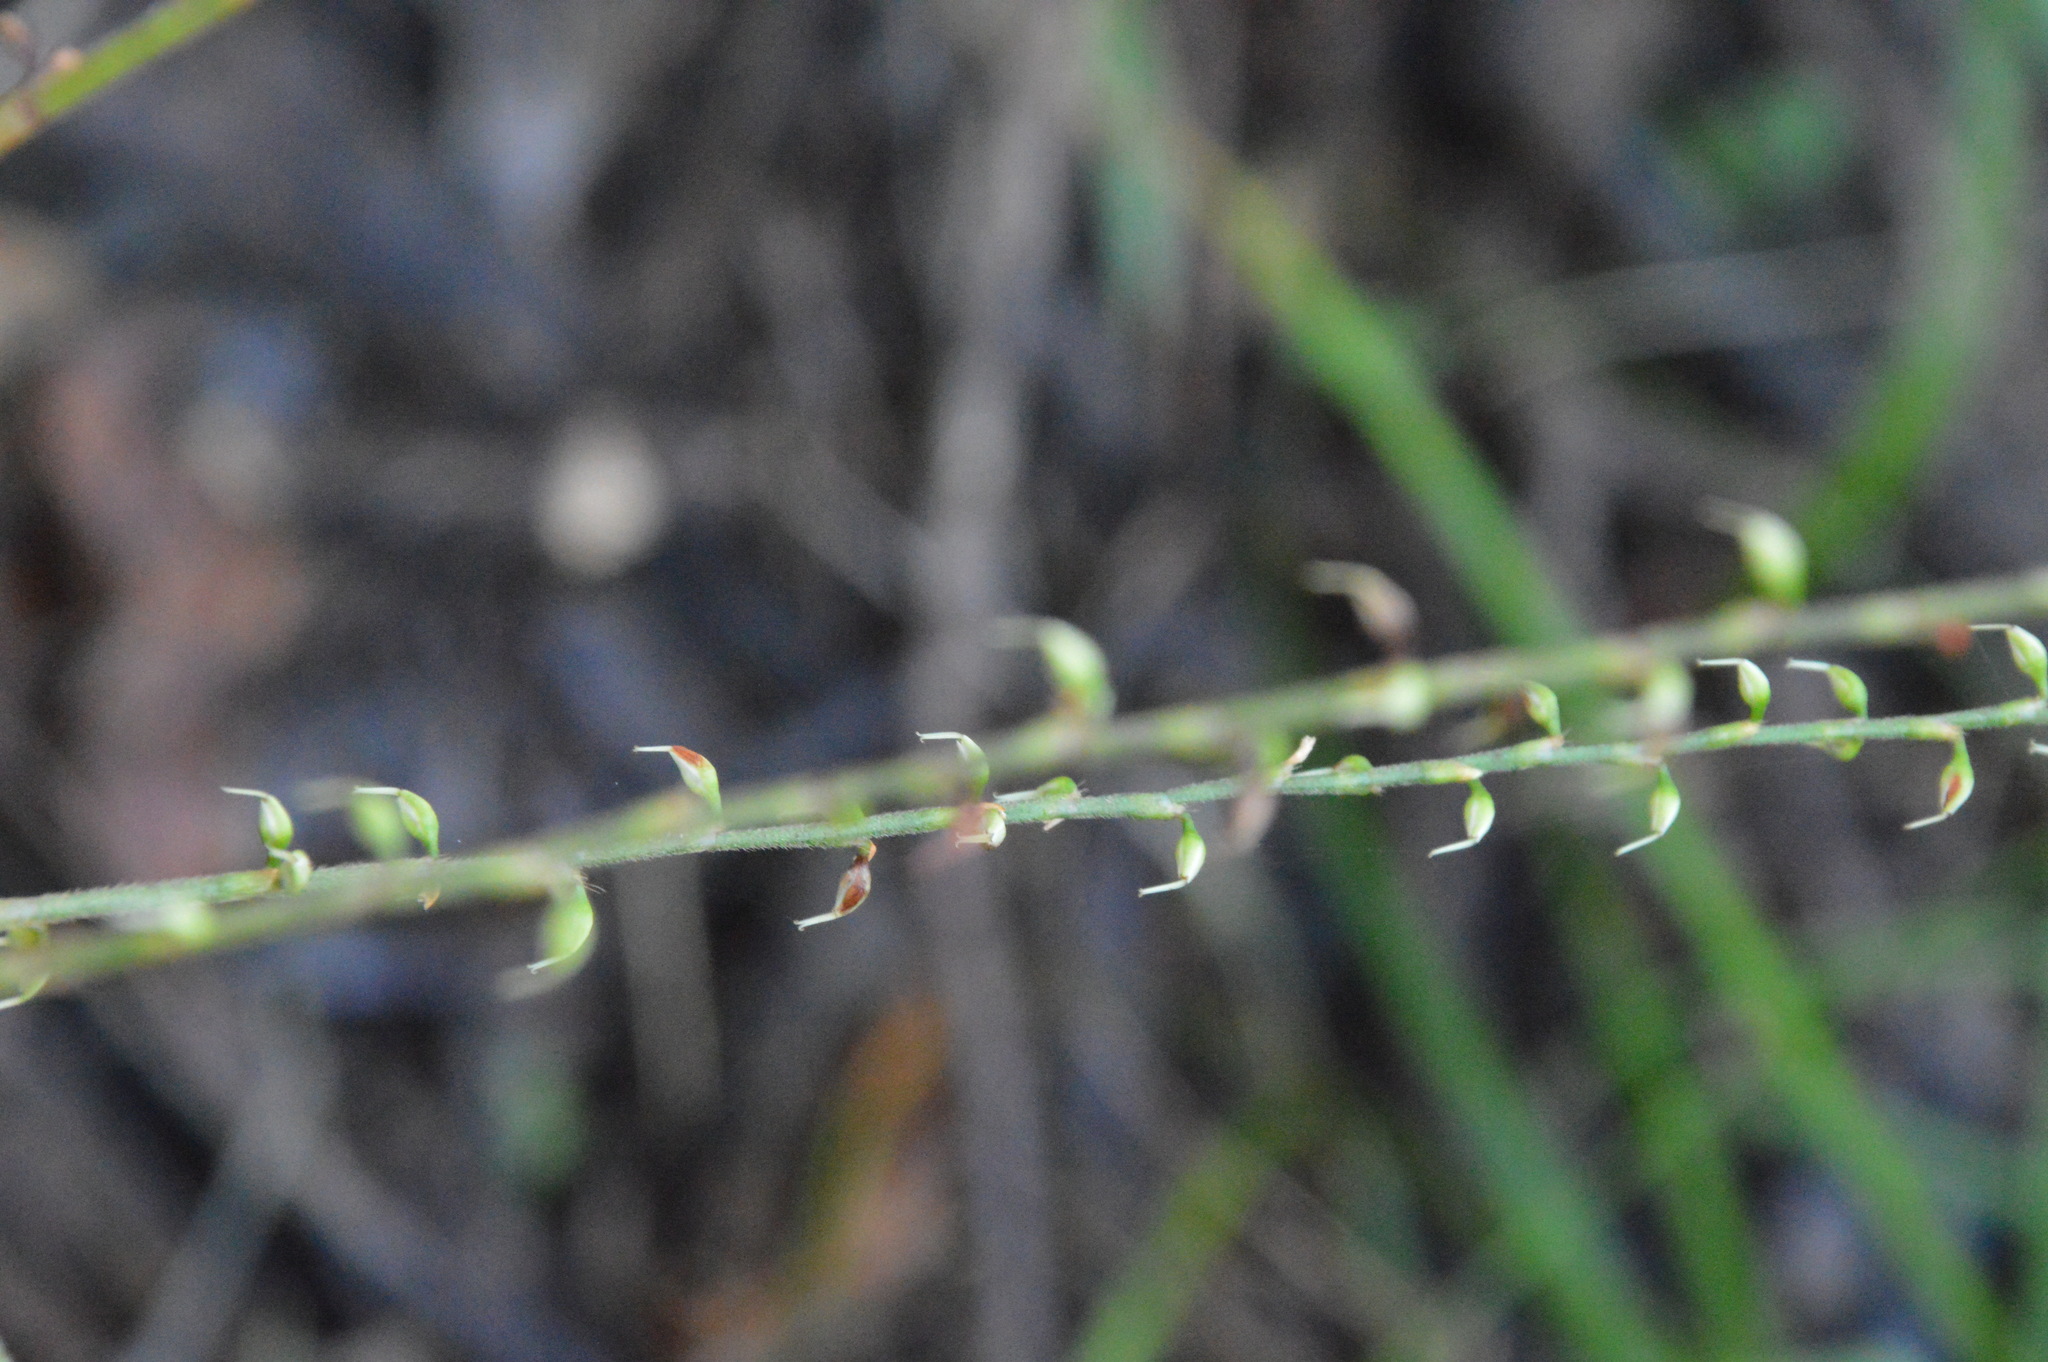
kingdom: Plantae
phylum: Tracheophyta
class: Magnoliopsida
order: Caryophyllales
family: Polygonaceae
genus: Persicaria
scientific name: Persicaria virginiana
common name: Jumpseed
